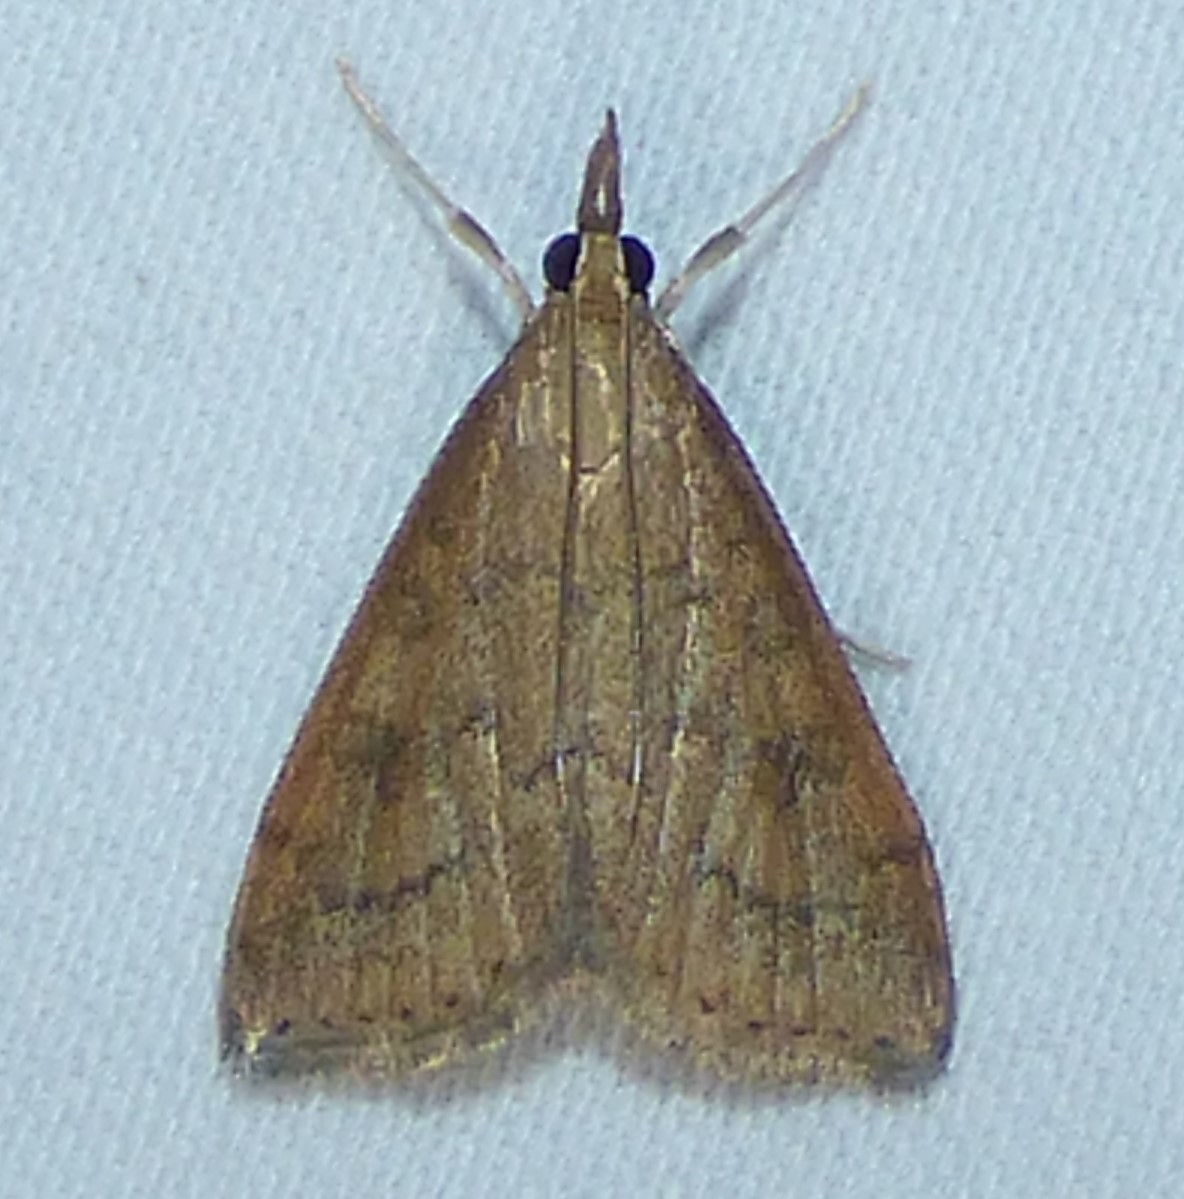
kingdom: Animalia
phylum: Arthropoda
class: Insecta
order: Lepidoptera
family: Crambidae
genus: Udea
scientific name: Udea rubigalis
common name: Celery leaftier moth
